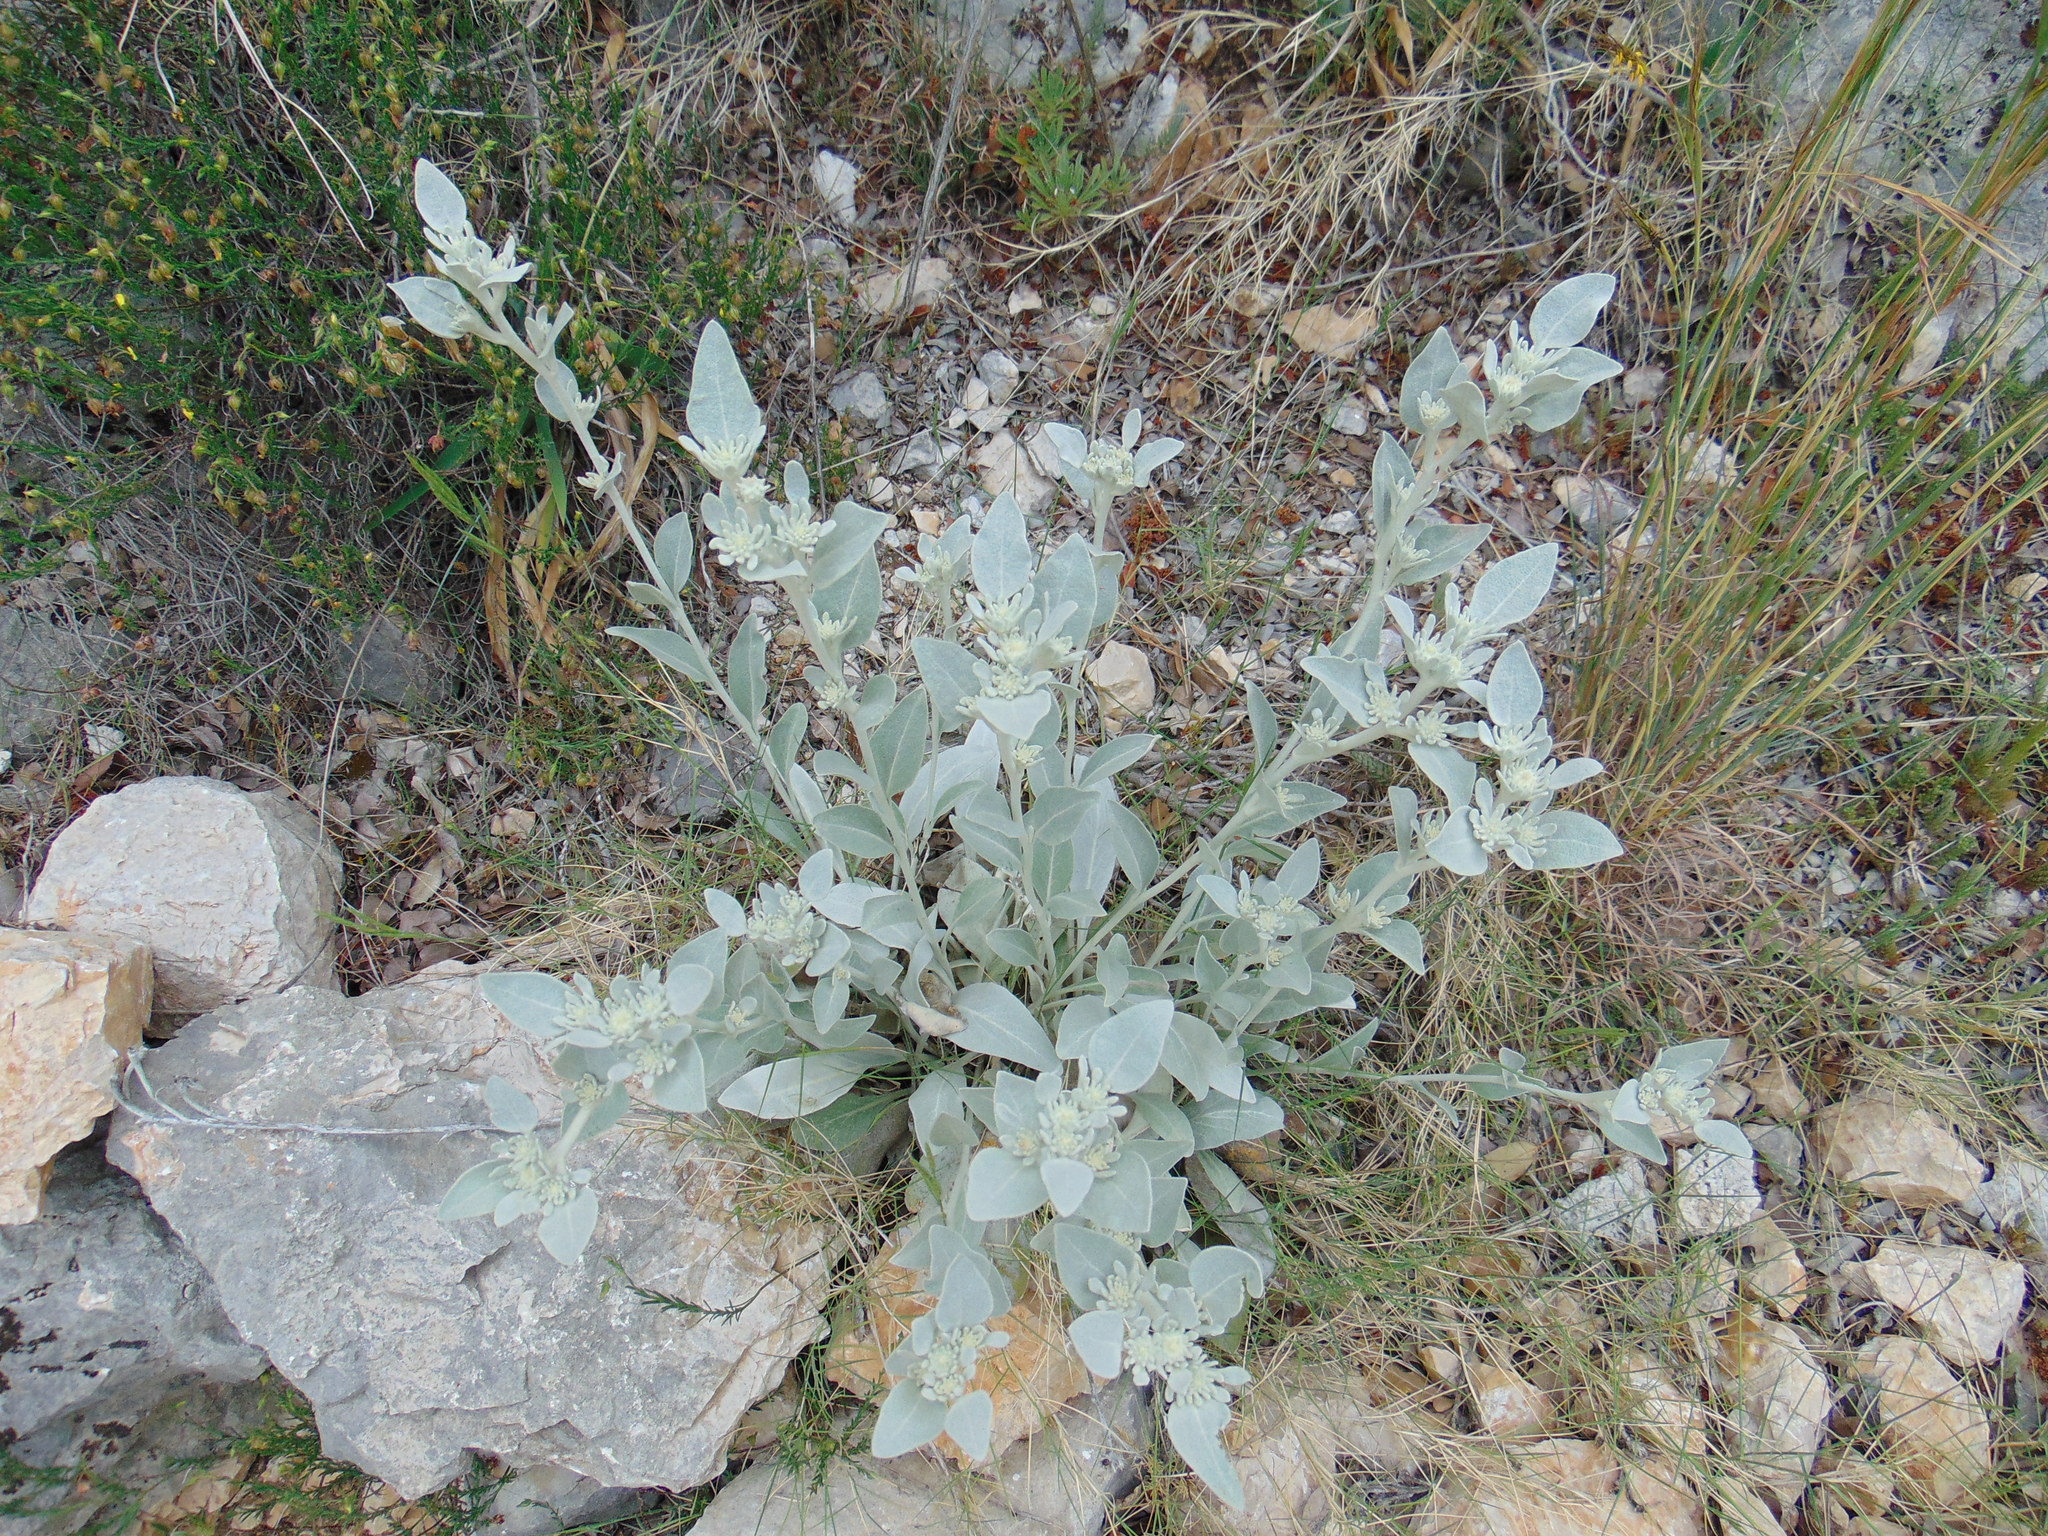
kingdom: Plantae
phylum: Tracheophyta
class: Magnoliopsida
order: Asterales
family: Asteraceae
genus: Pentanema
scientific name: Pentanema verbascifolium
